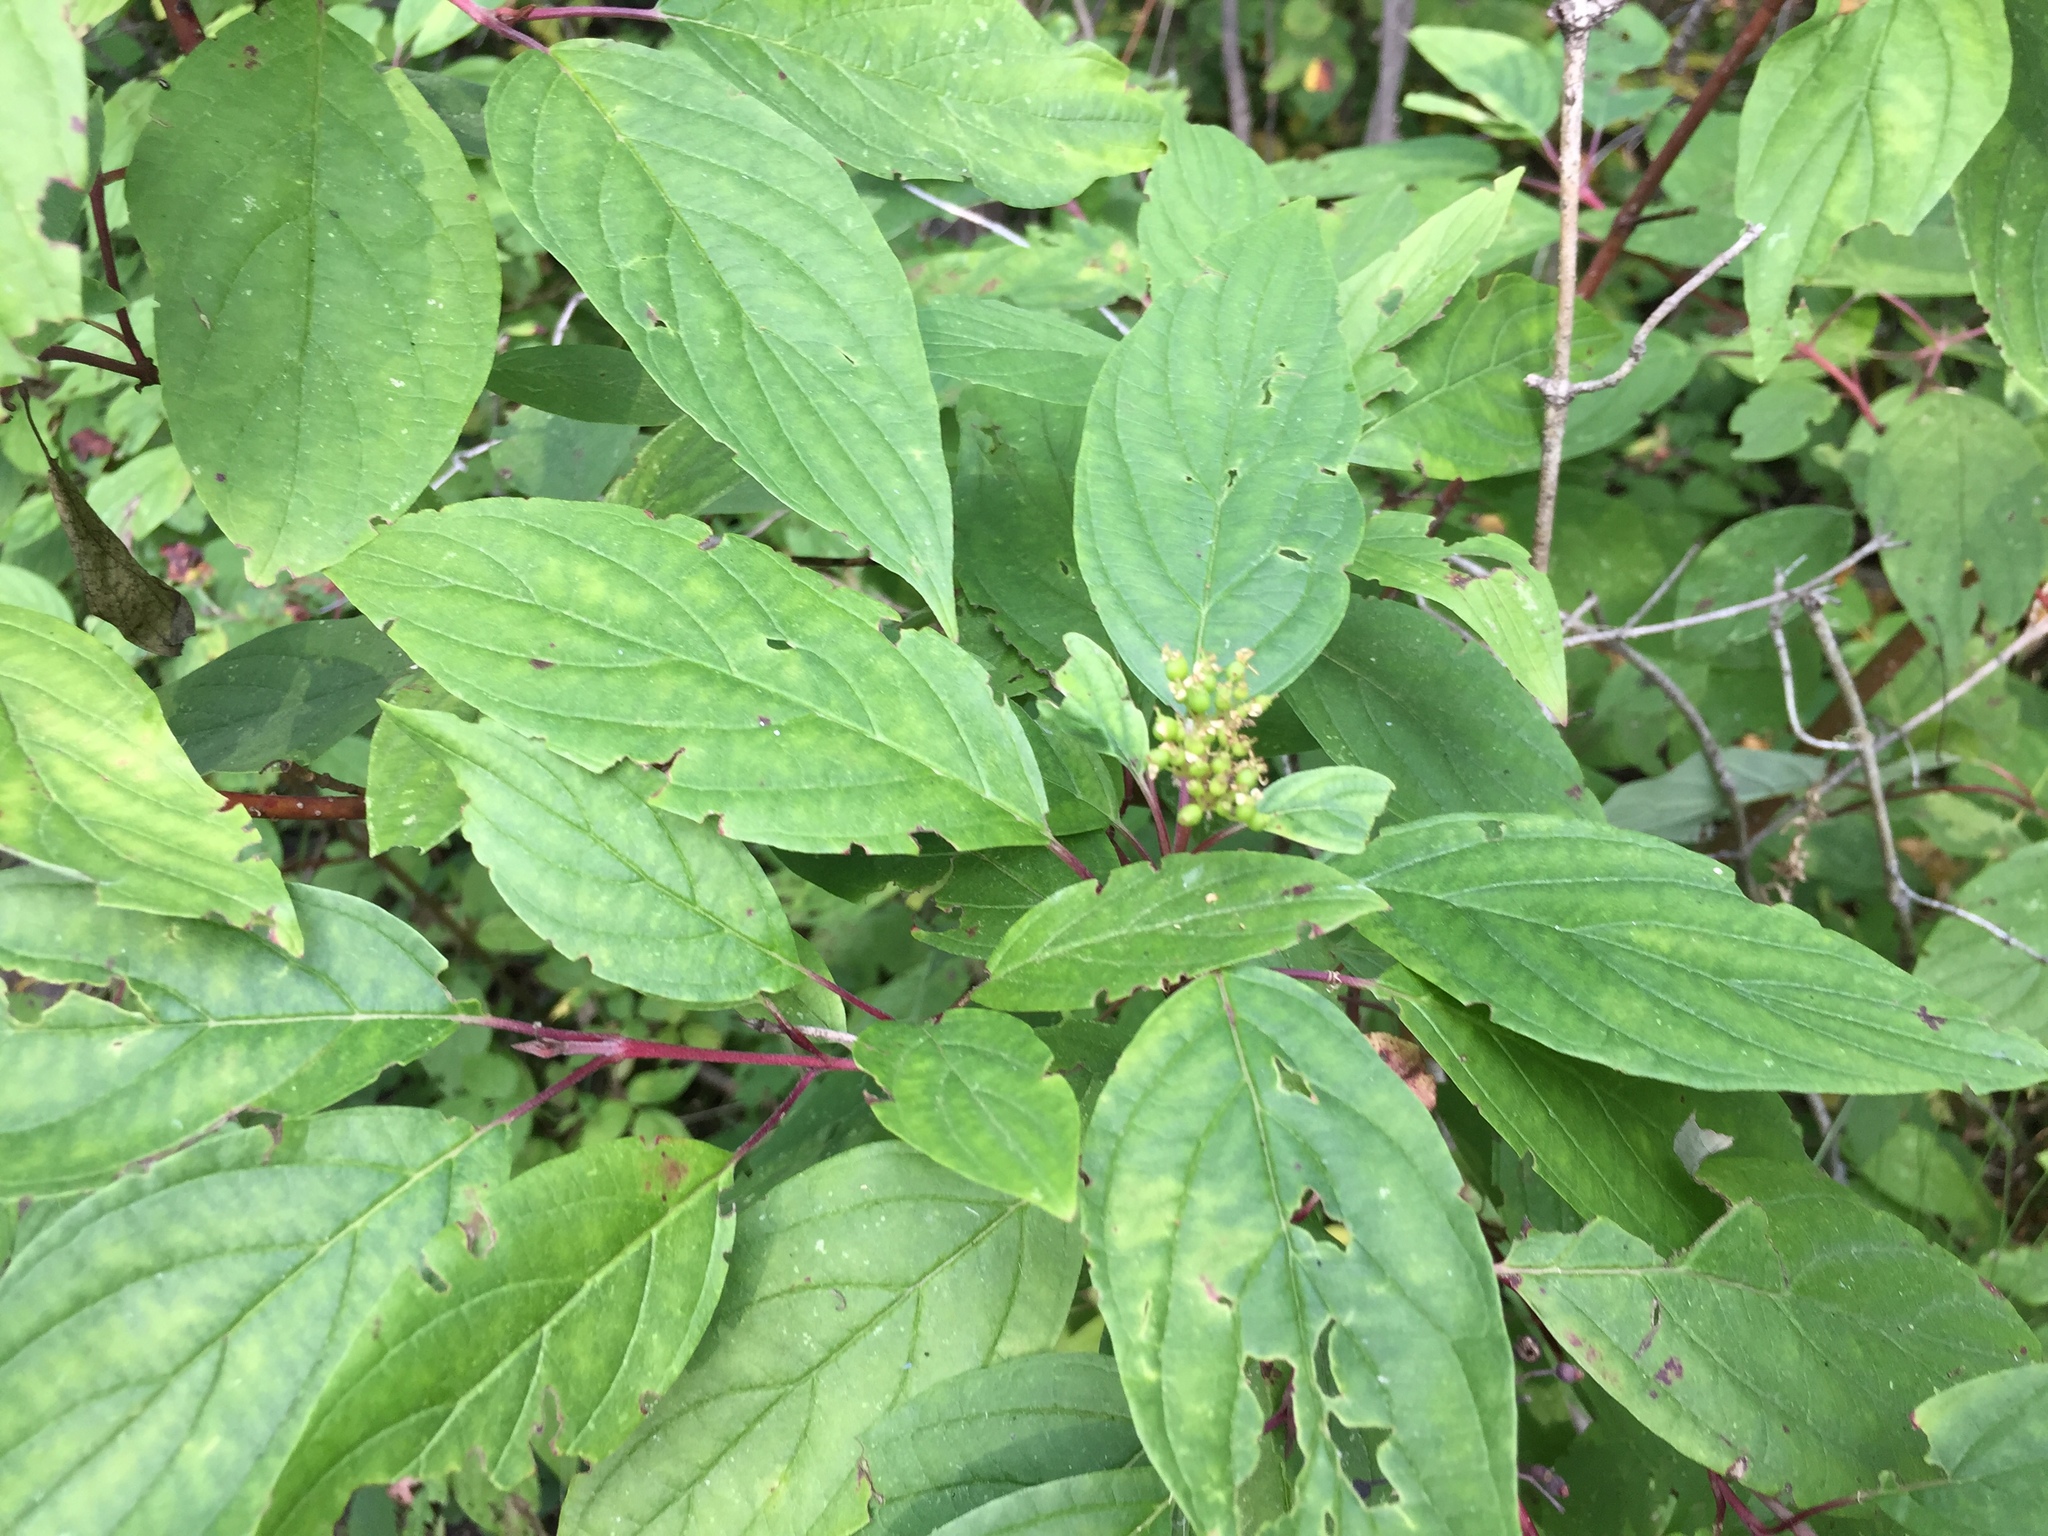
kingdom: Plantae
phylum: Tracheophyta
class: Magnoliopsida
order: Cornales
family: Cornaceae
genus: Cornus
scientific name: Cornus sericea
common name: Red-osier dogwood
